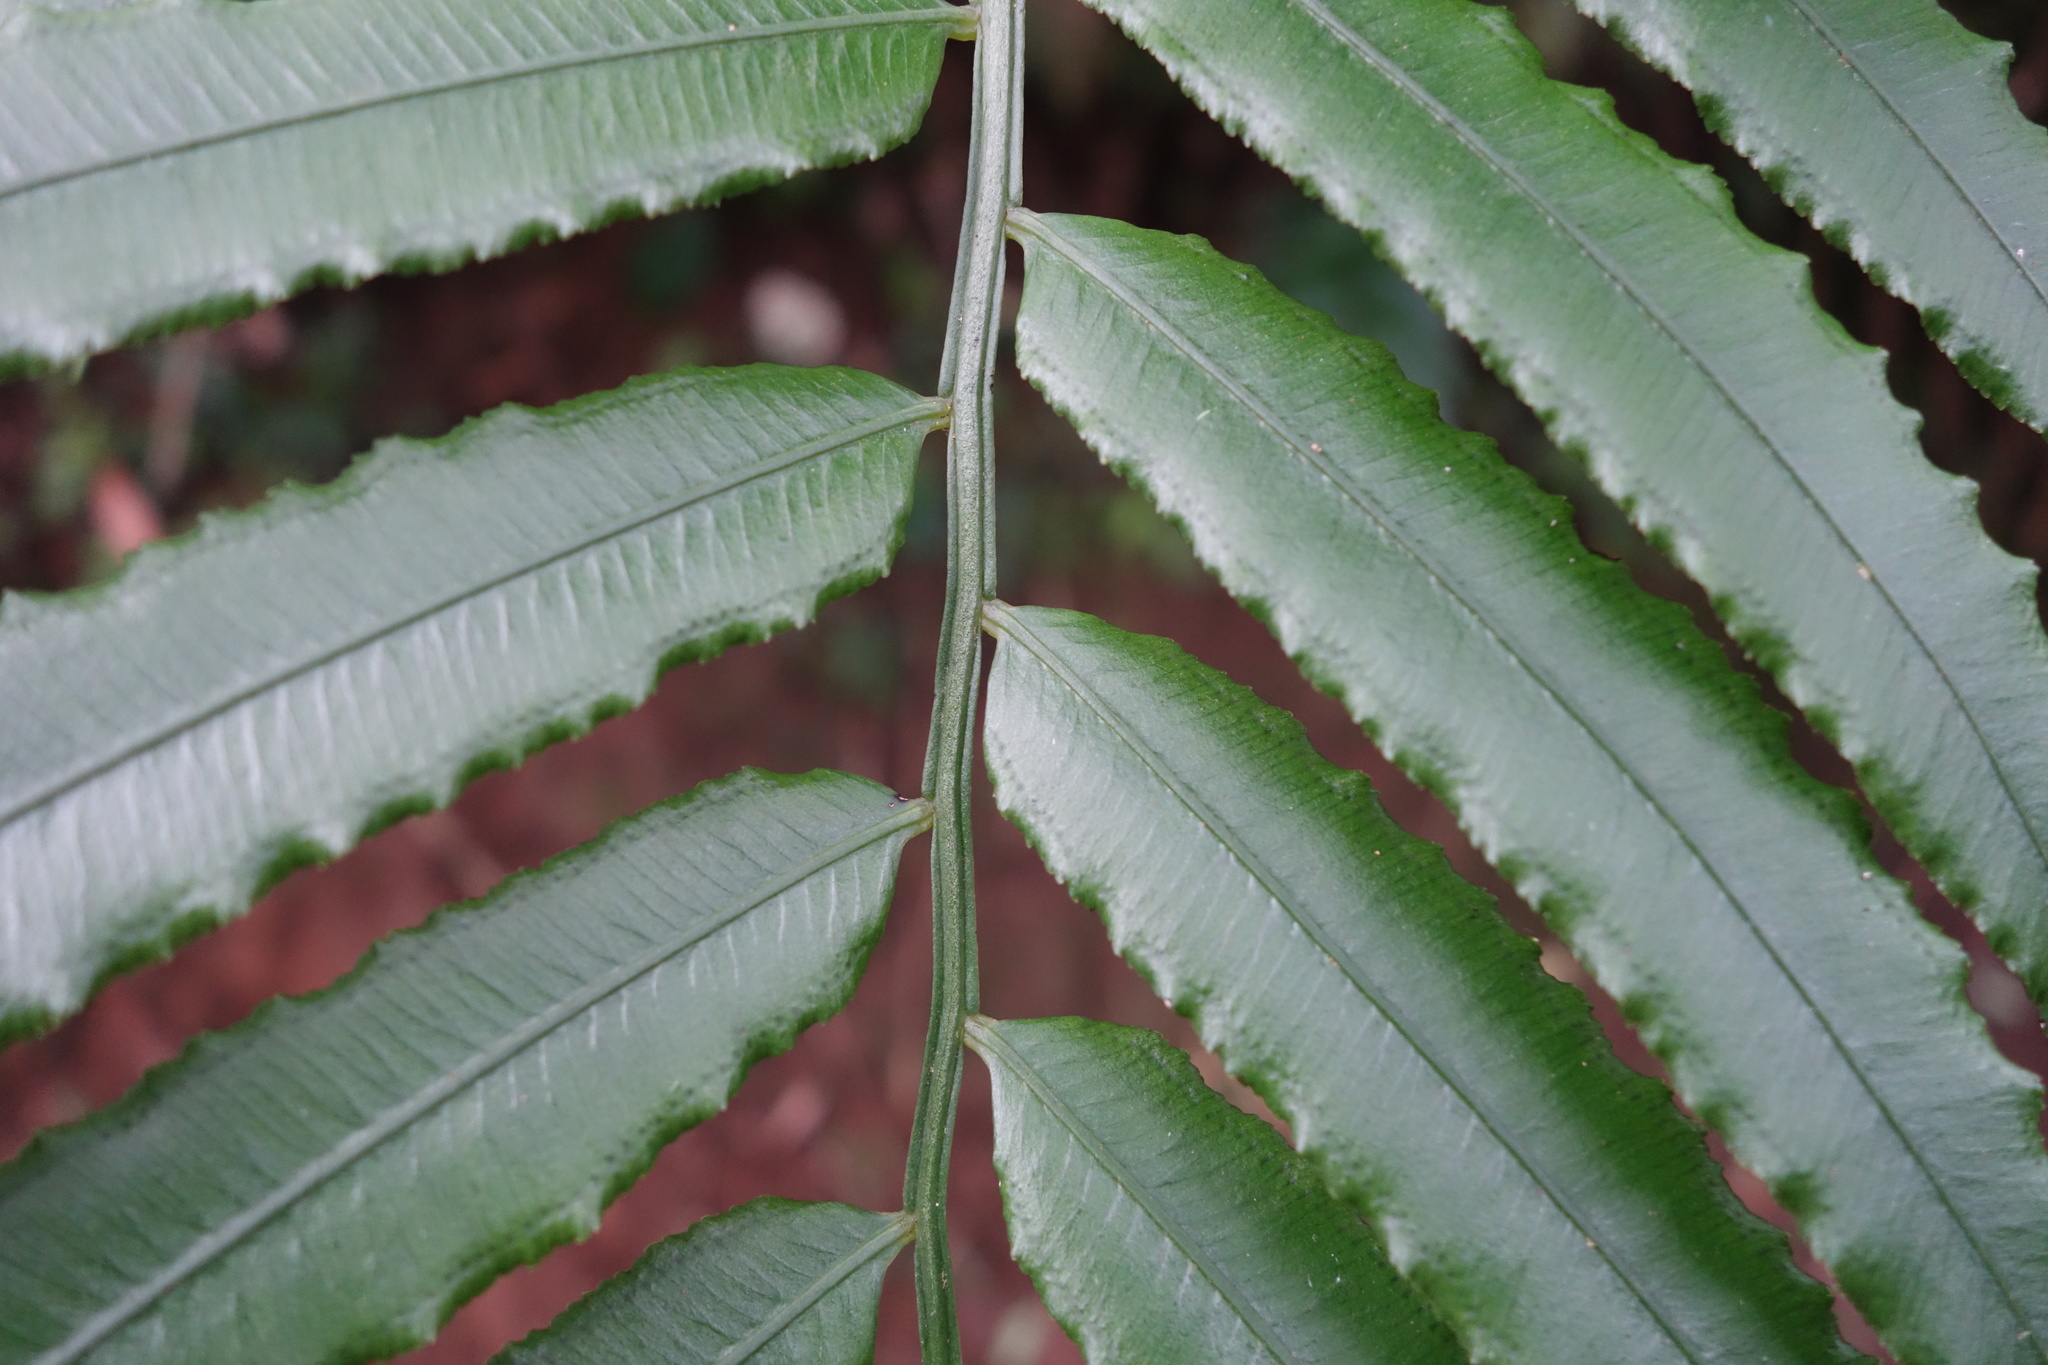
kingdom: Plantae
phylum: Tracheophyta
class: Polypodiopsida
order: Marattiales
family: Marattiaceae
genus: Angiopteris
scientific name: Angiopteris lygodiifolia
